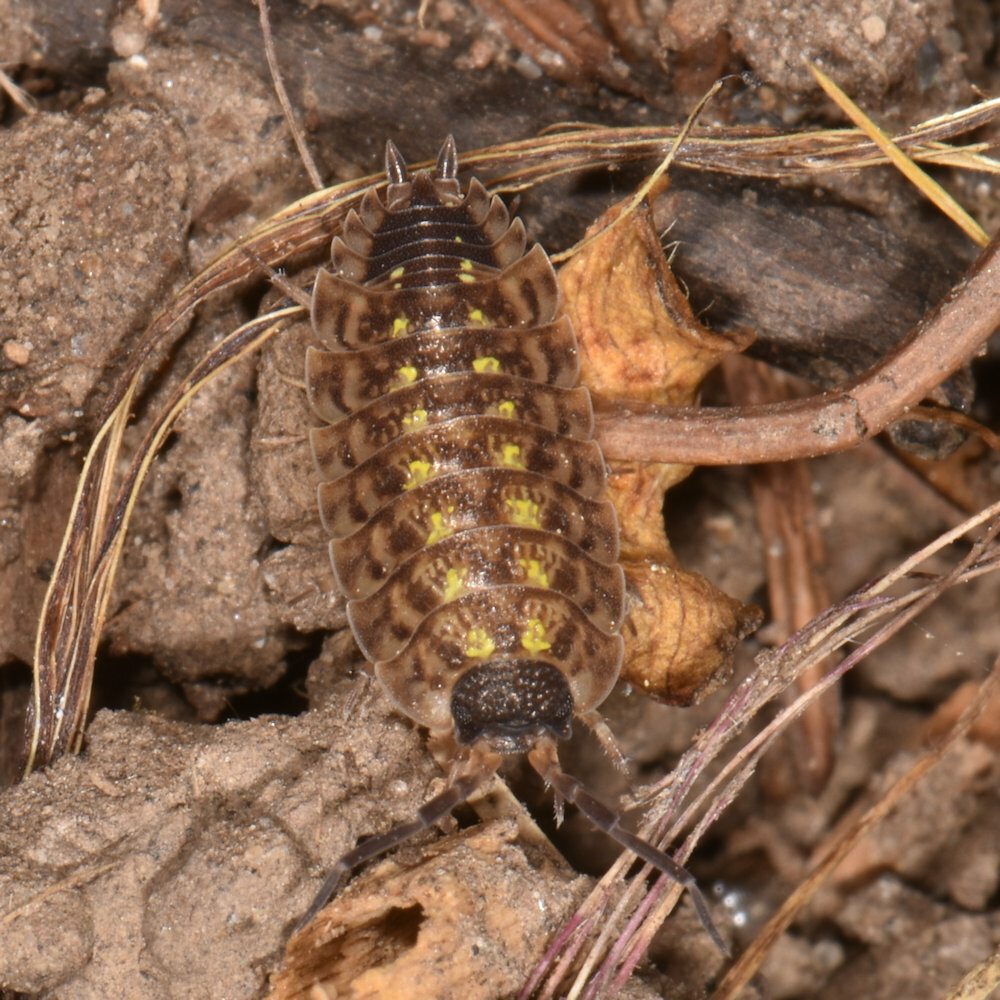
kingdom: Animalia
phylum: Arthropoda
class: Malacostraca
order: Isopoda
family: Porcellionidae
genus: Porcellio
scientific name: Porcellio spinicornis
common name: Painted woodlouse
